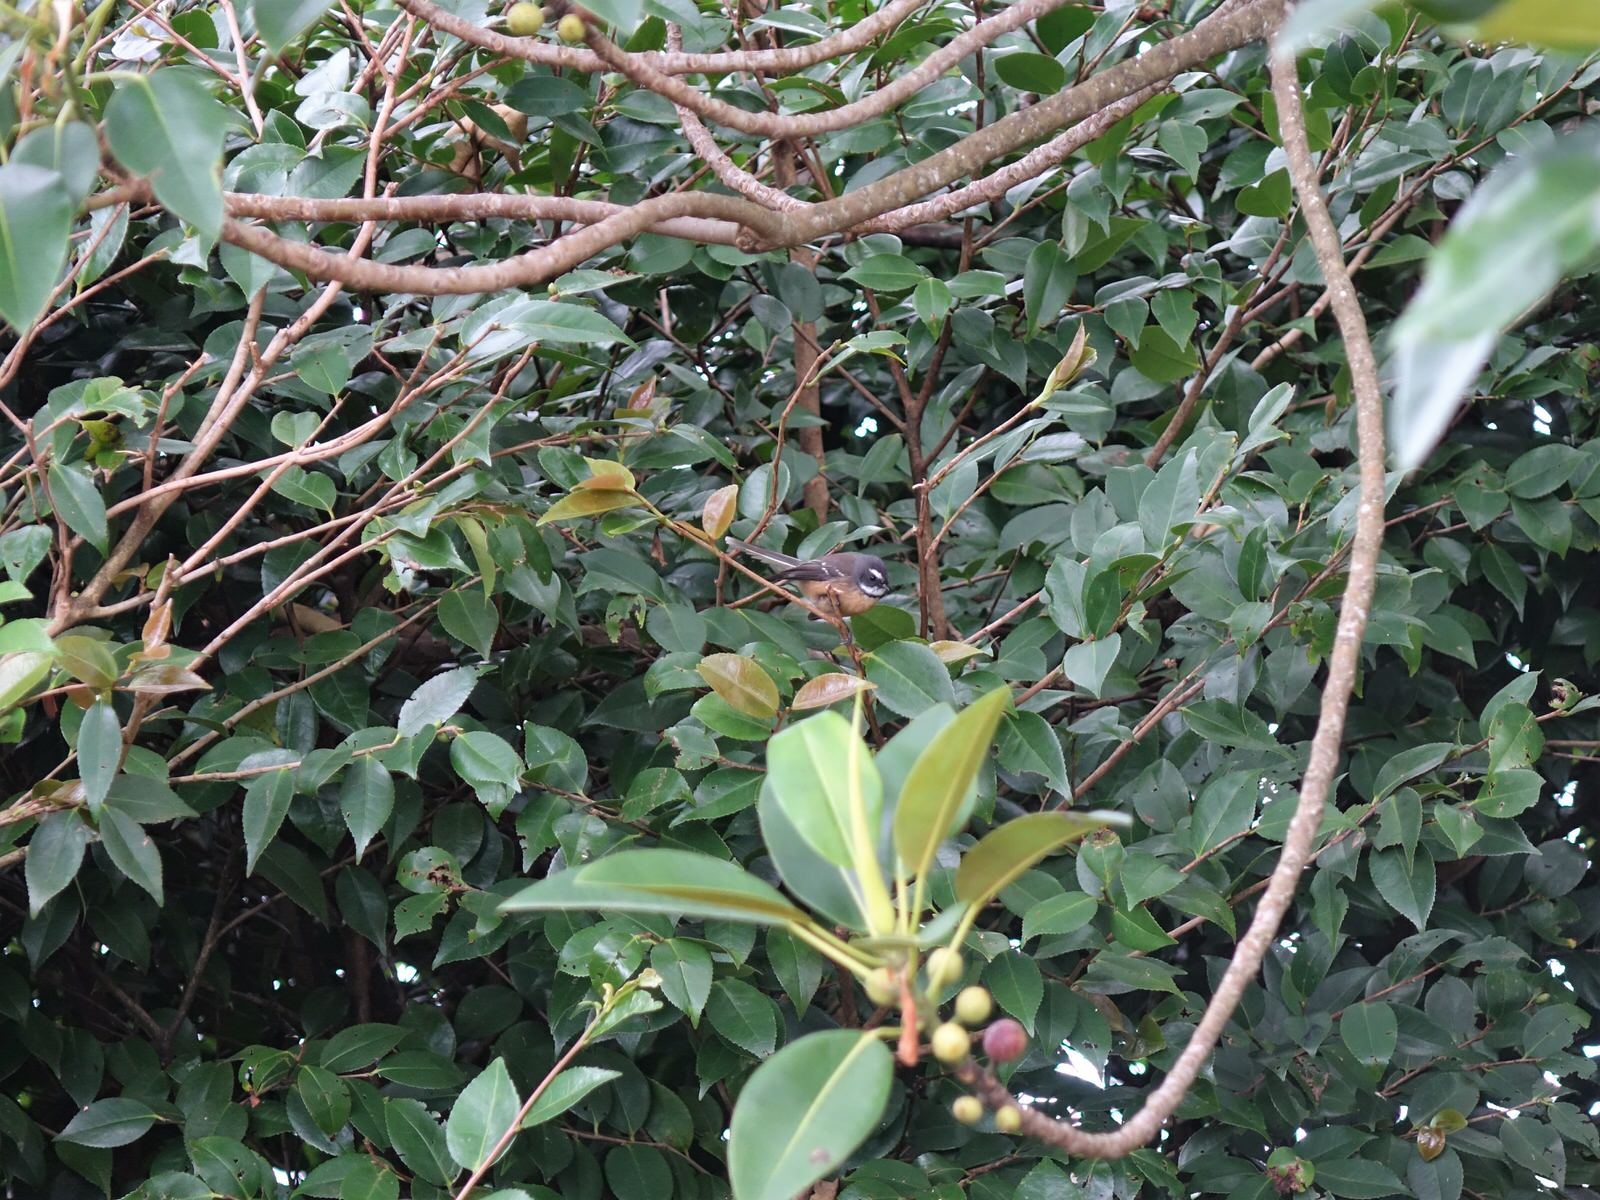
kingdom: Animalia
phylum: Chordata
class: Aves
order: Passeriformes
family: Rhipiduridae
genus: Rhipidura
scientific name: Rhipidura fuliginosa
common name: New zealand fantail
